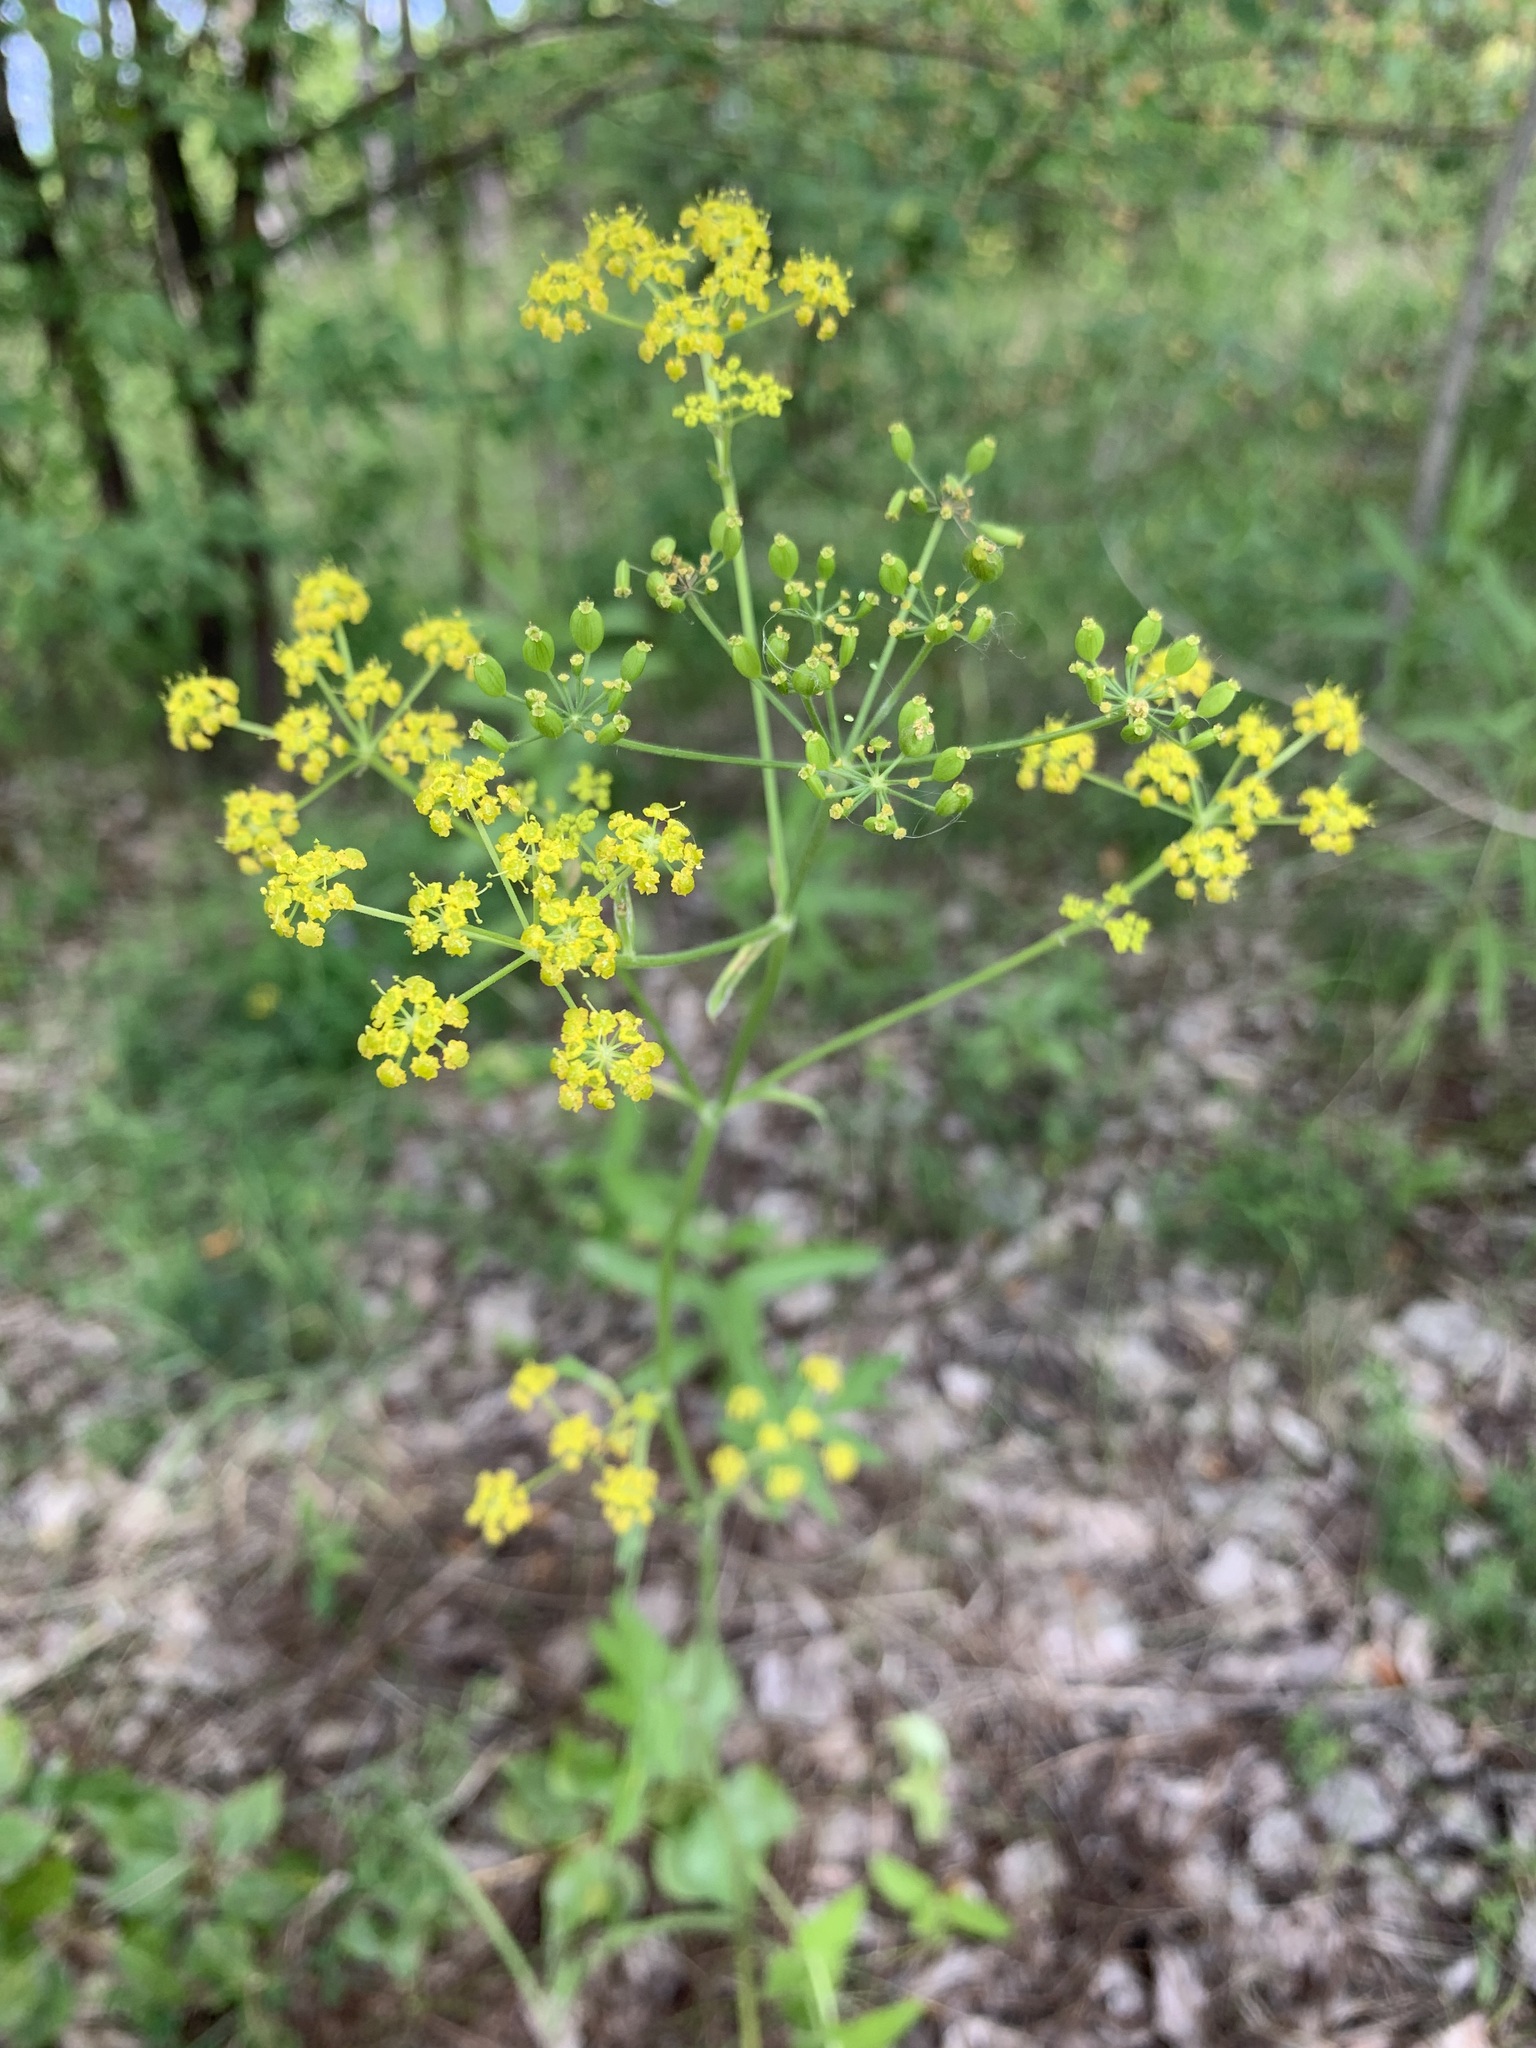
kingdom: Plantae
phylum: Tracheophyta
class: Magnoliopsida
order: Apiales
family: Apiaceae
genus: Pastinaca
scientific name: Pastinaca sativa
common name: Wild parsnip
